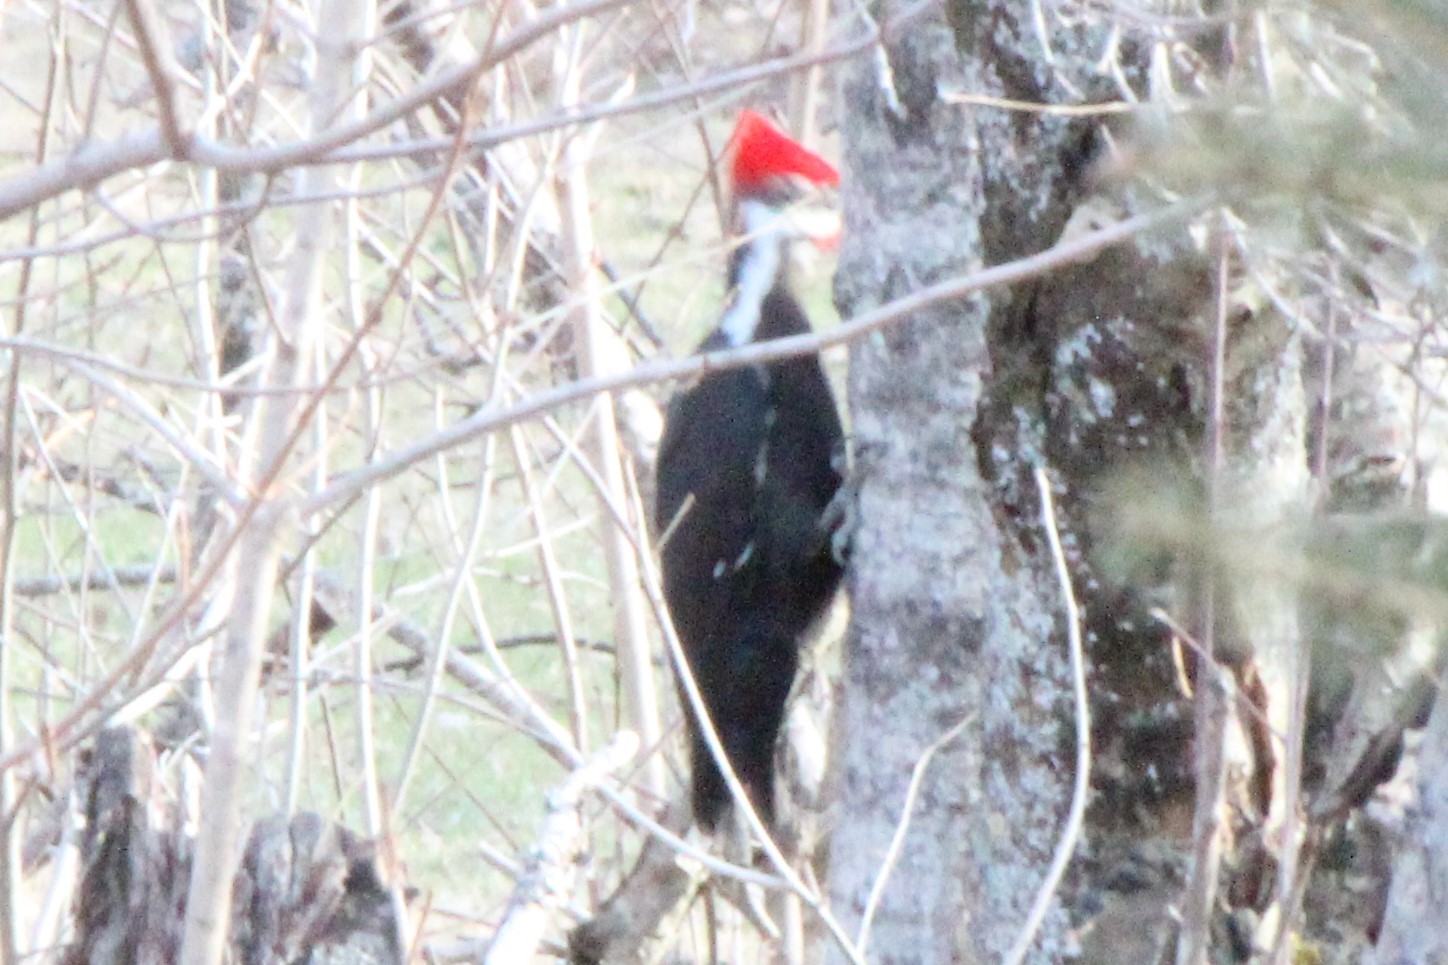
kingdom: Animalia
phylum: Chordata
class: Aves
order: Piciformes
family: Picidae
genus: Dryocopus
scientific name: Dryocopus pileatus
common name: Pileated woodpecker
